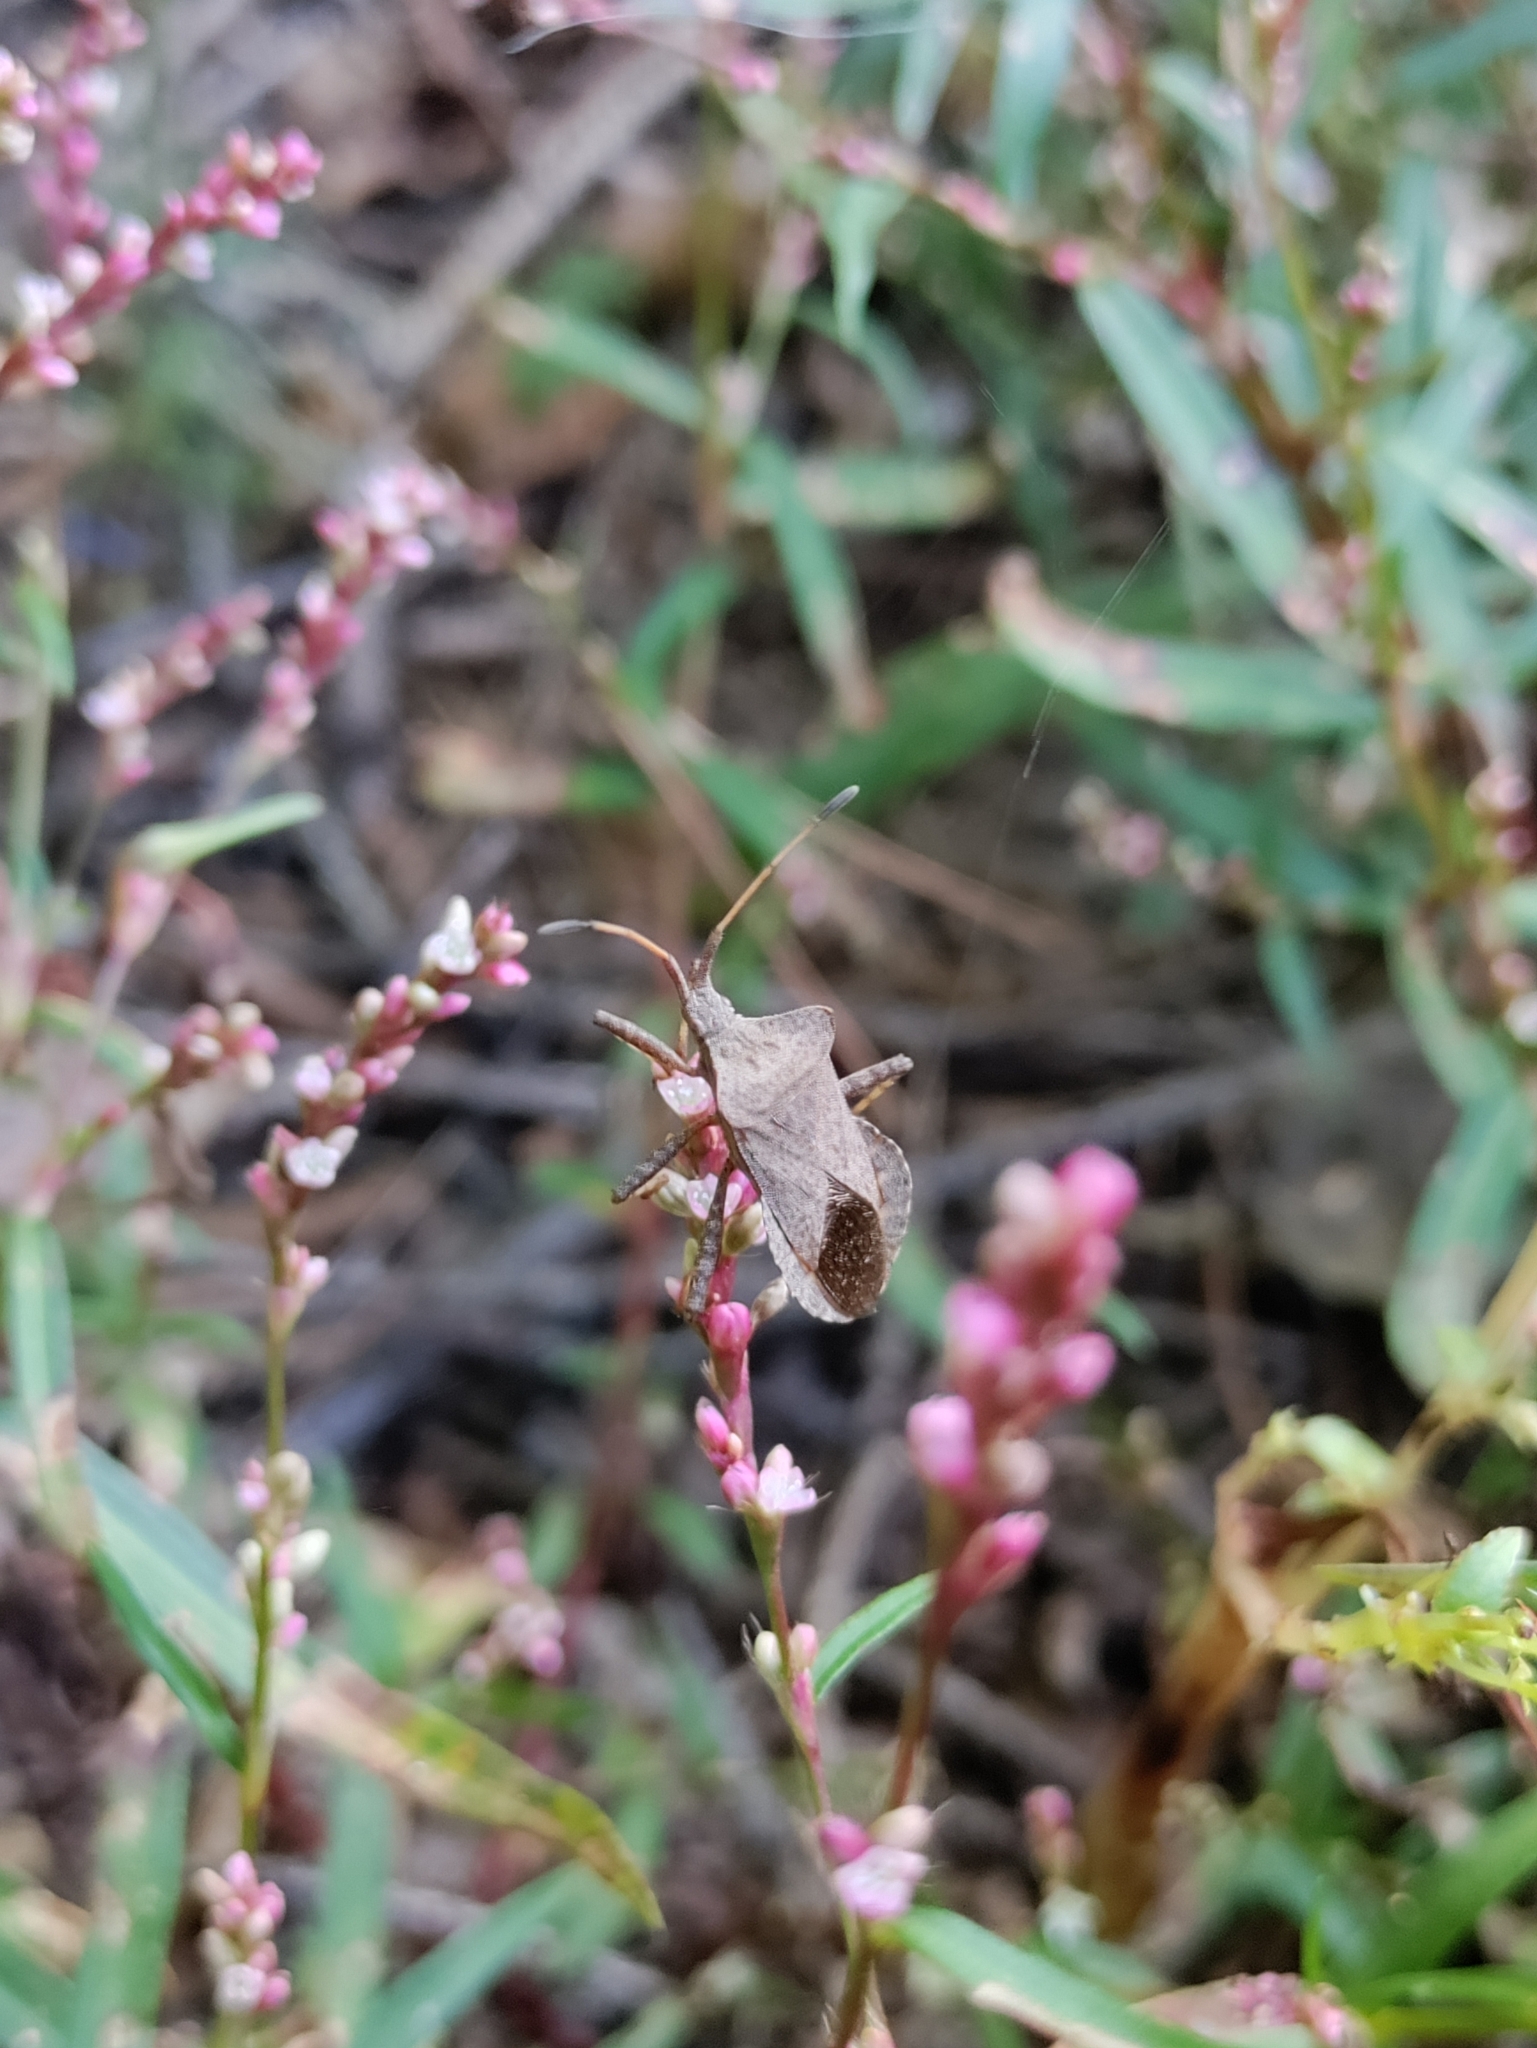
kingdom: Animalia
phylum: Arthropoda
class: Insecta
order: Hemiptera
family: Coreidae
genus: Coreus
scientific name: Coreus marginatus
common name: Dock bug
